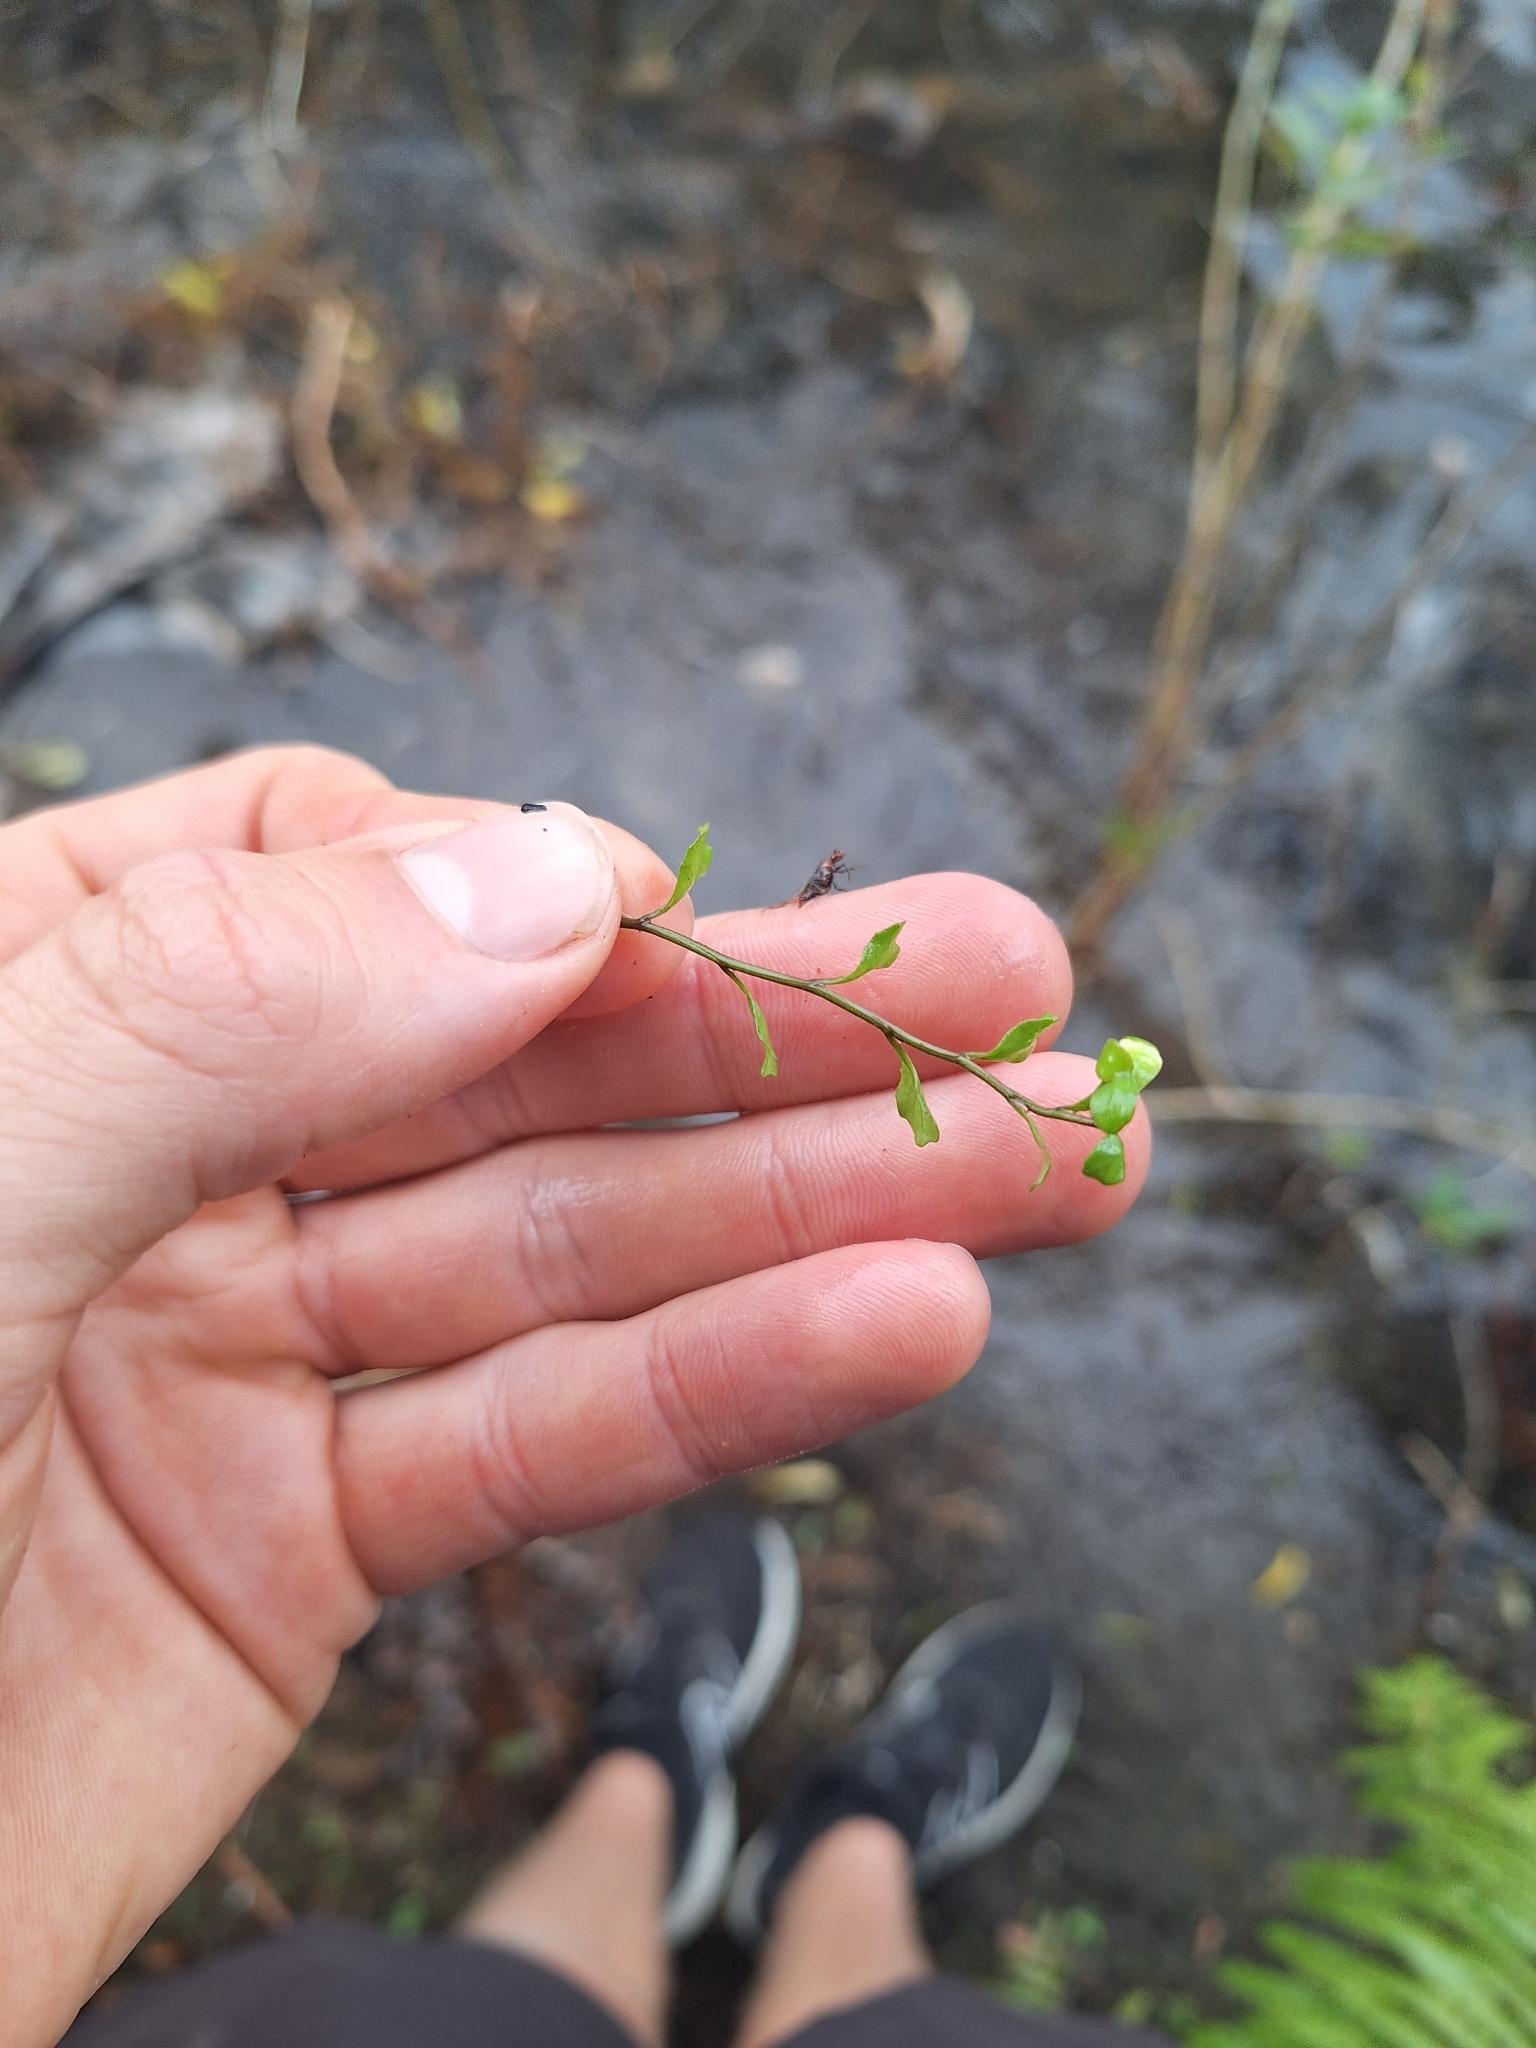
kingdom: Plantae
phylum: Tracheophyta
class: Magnoliopsida
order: Asterales
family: Campanulaceae
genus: Lobelia
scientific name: Lobelia angulata
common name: Lawn lobelia
